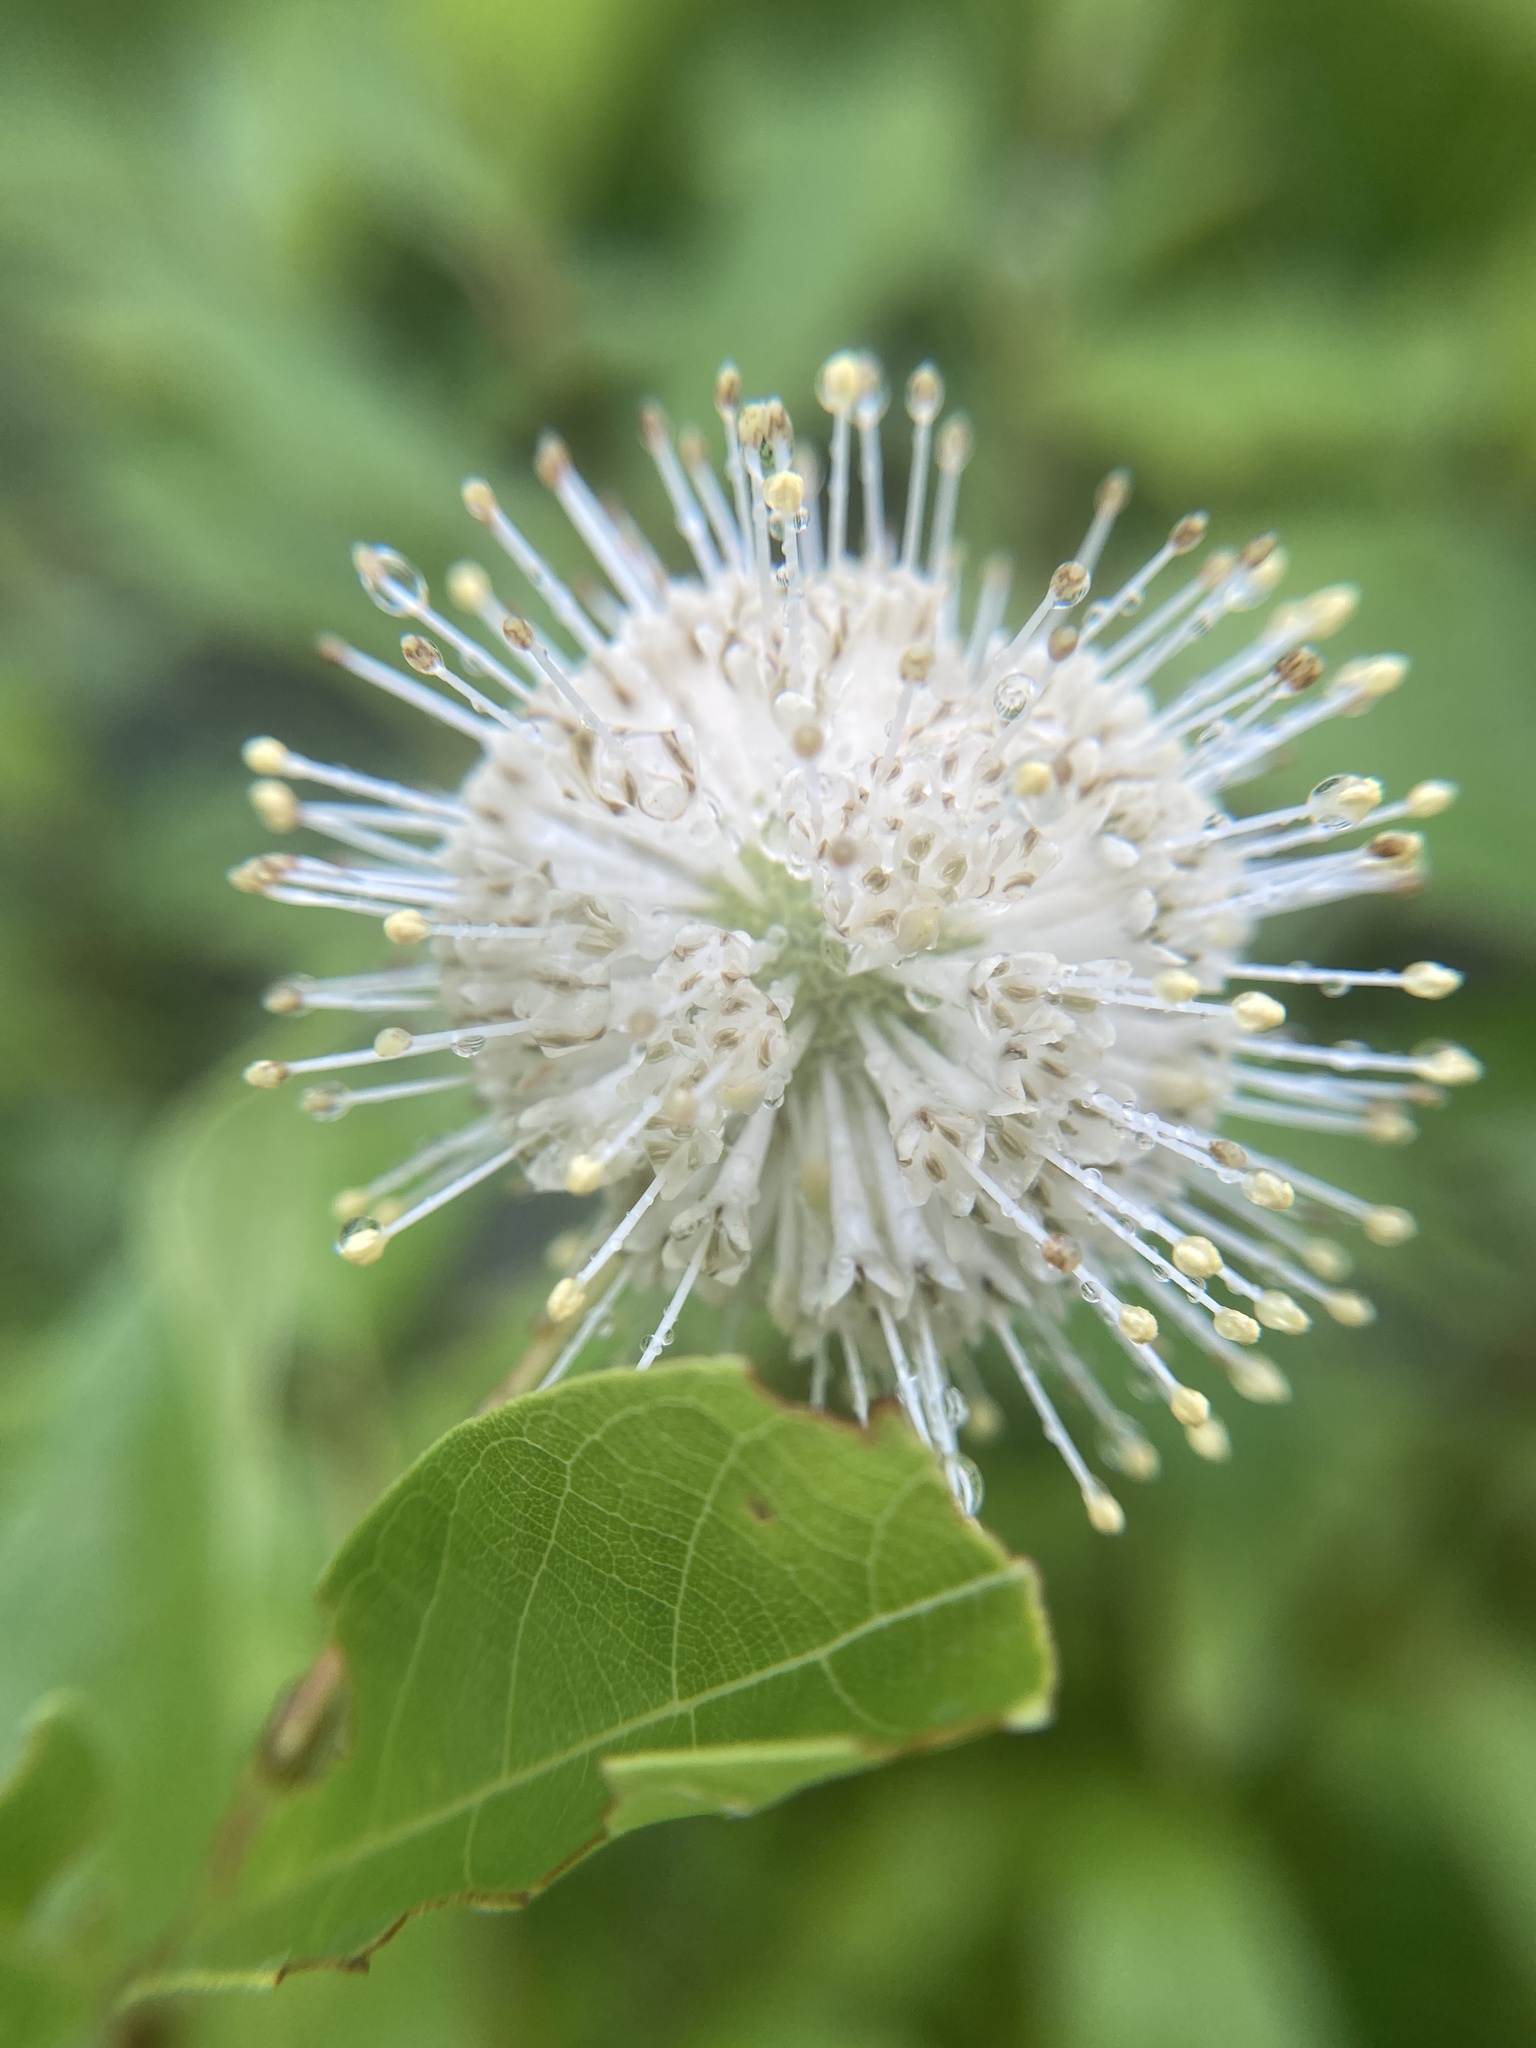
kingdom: Plantae
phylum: Tracheophyta
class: Magnoliopsida
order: Gentianales
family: Rubiaceae
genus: Cephalanthus
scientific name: Cephalanthus occidentalis
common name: Button-willow
